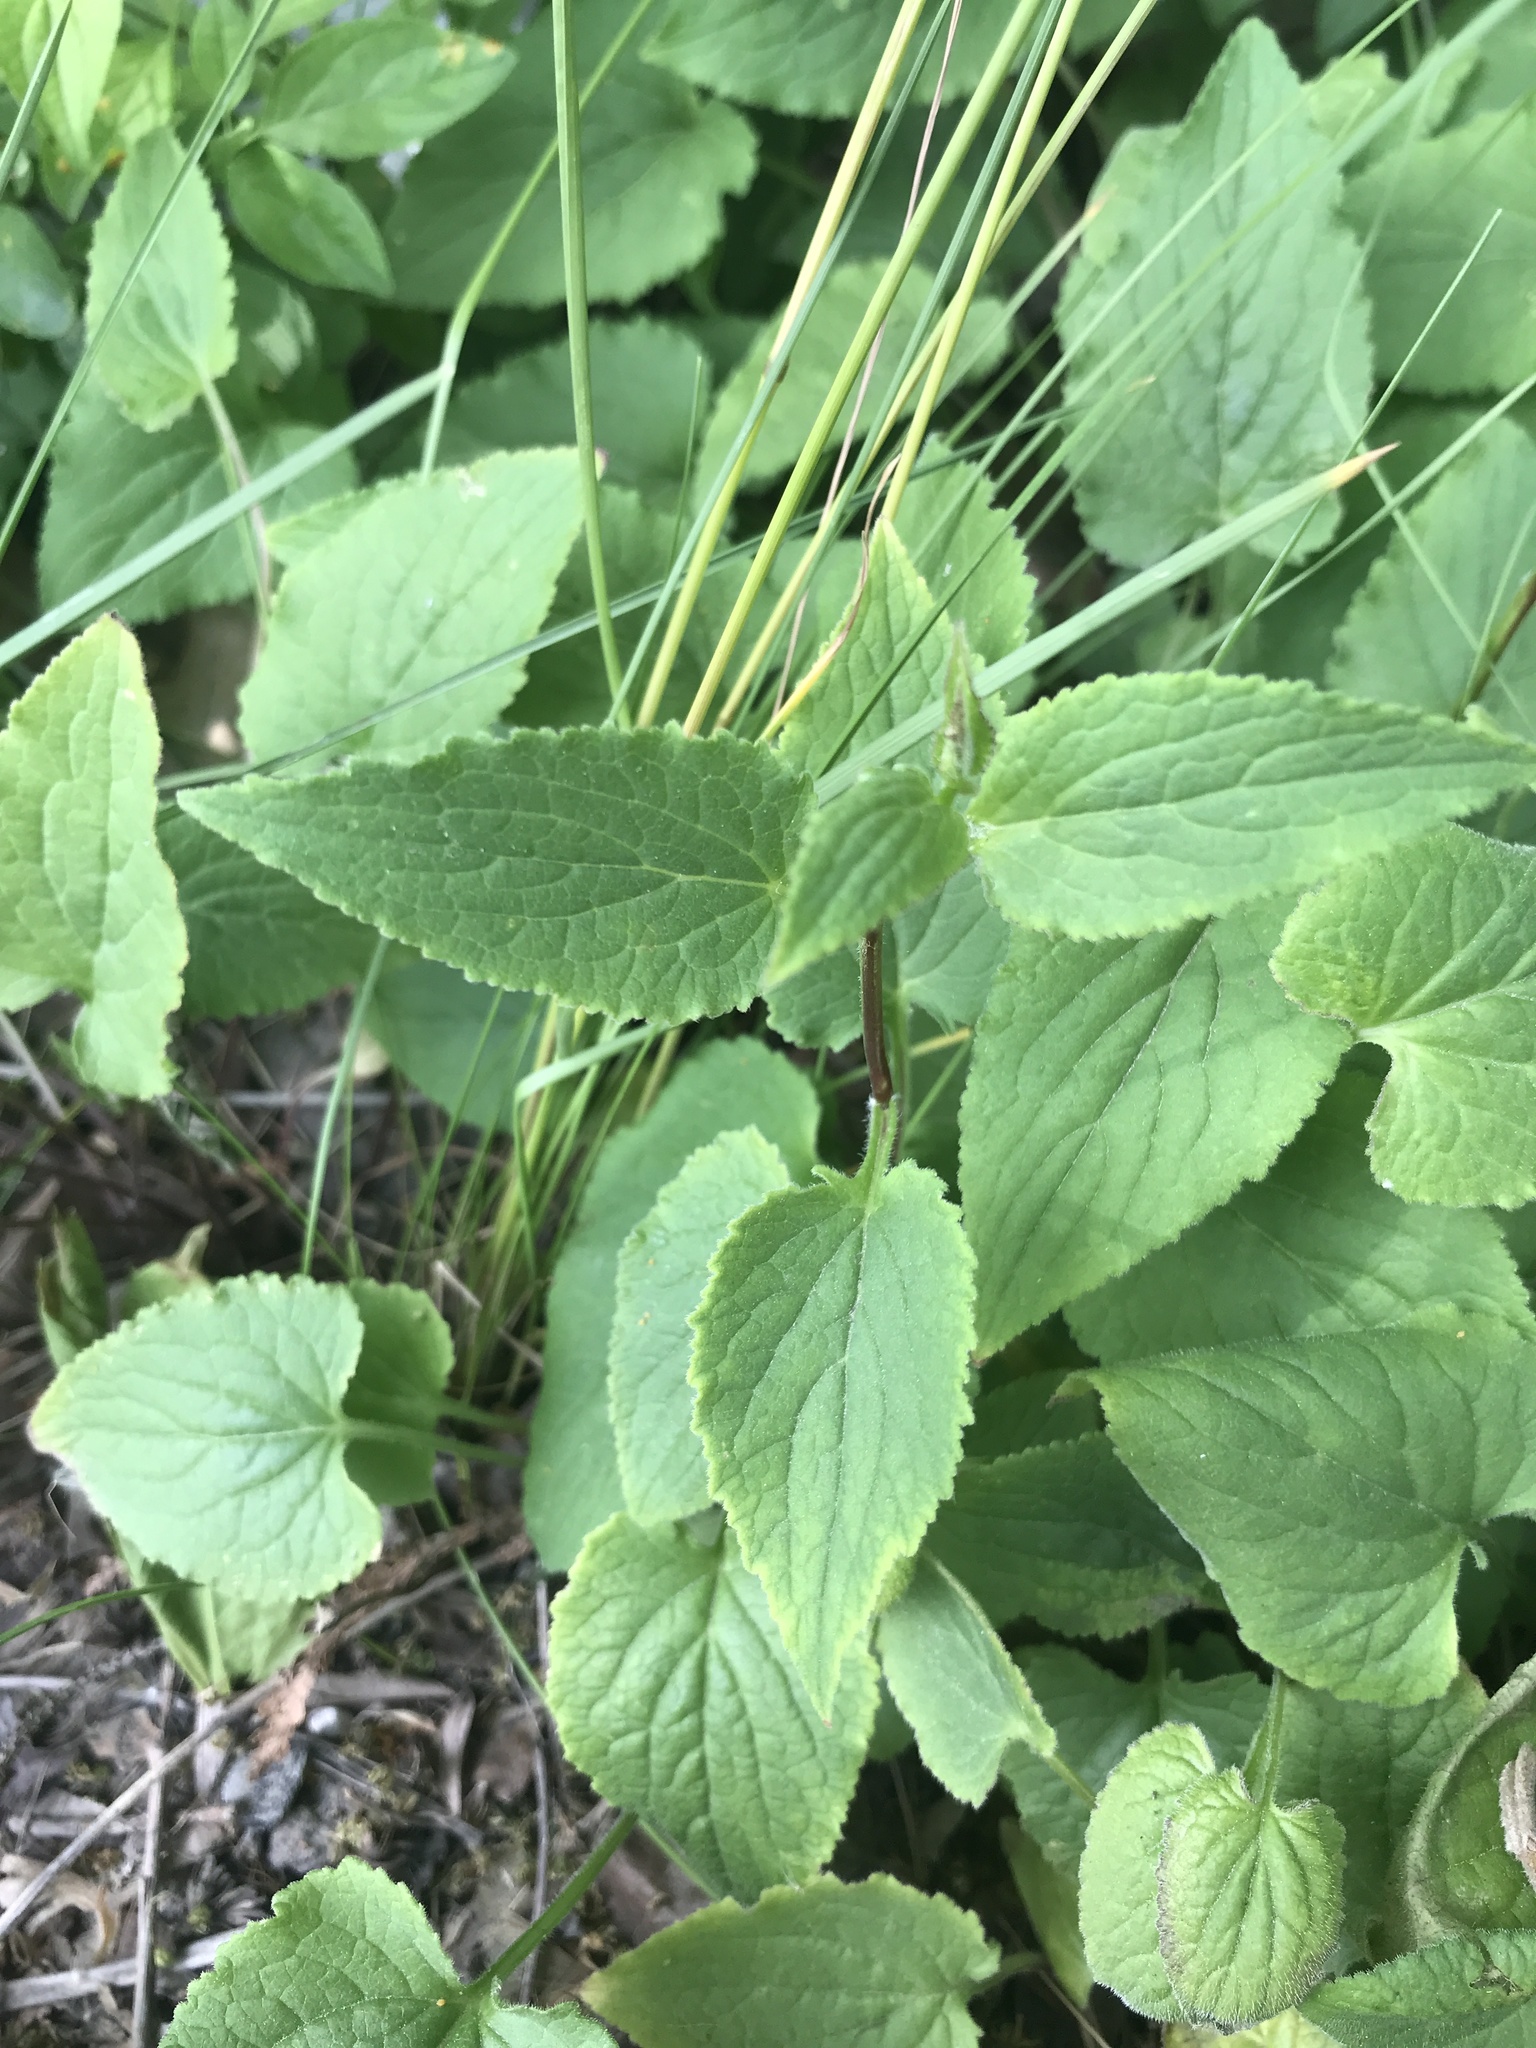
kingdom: Plantae
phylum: Tracheophyta
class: Magnoliopsida
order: Asterales
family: Campanulaceae
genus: Campanula
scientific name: Campanula rapunculoides
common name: Creeping bellflower
